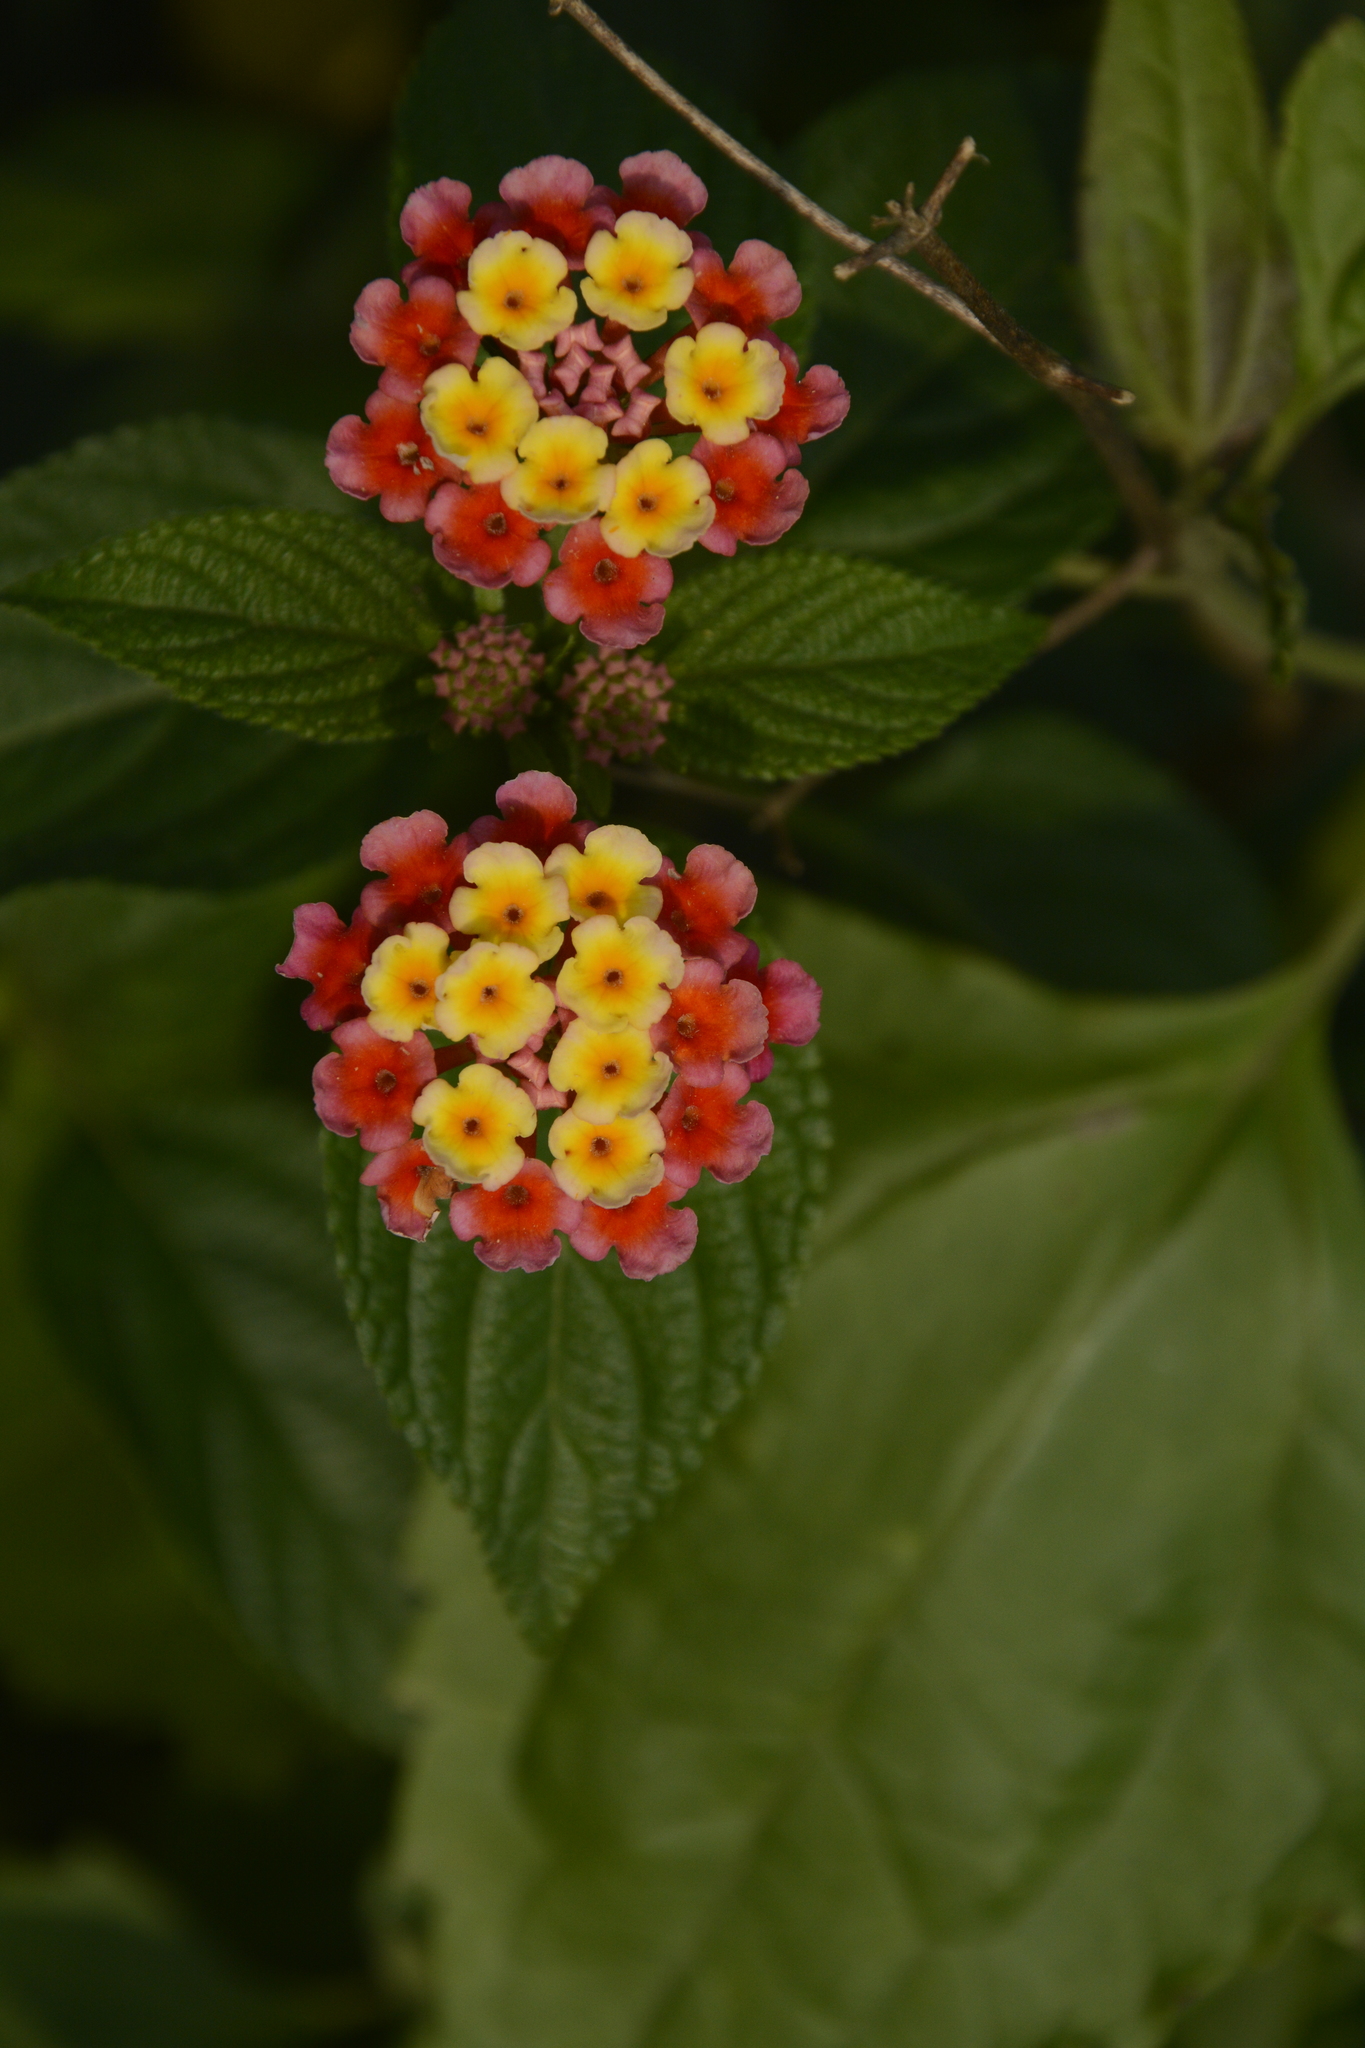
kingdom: Plantae
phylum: Tracheophyta
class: Magnoliopsida
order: Lamiales
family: Verbenaceae
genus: Lantana
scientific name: Lantana camara
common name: Lantana
